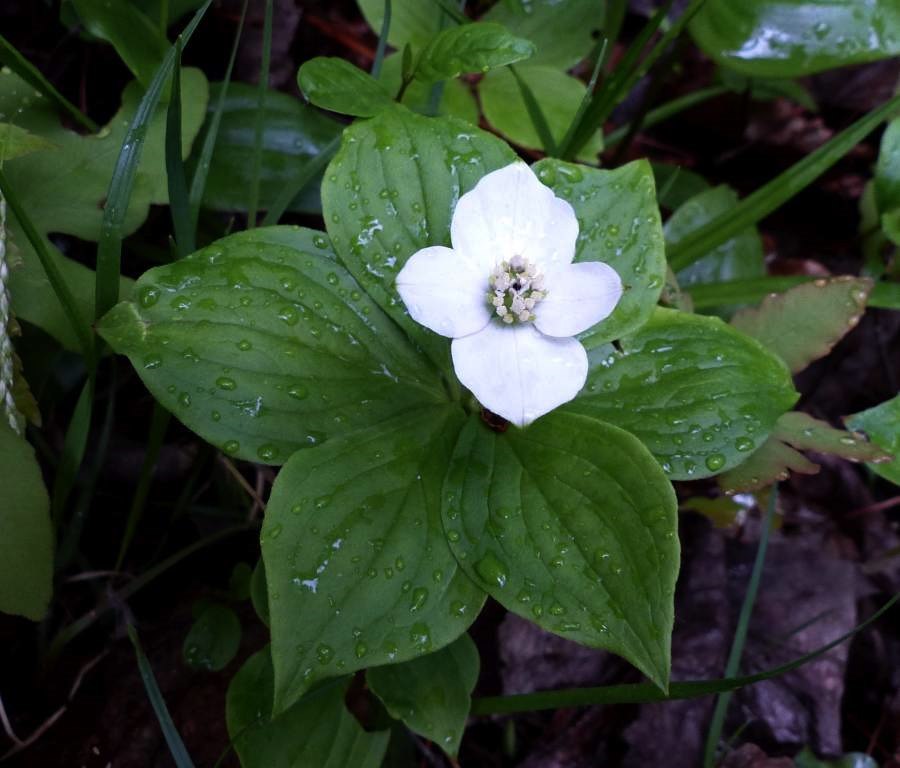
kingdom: Plantae
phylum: Tracheophyta
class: Magnoliopsida
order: Cornales
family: Cornaceae
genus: Cornus
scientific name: Cornus canadensis
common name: Creeping dogwood
